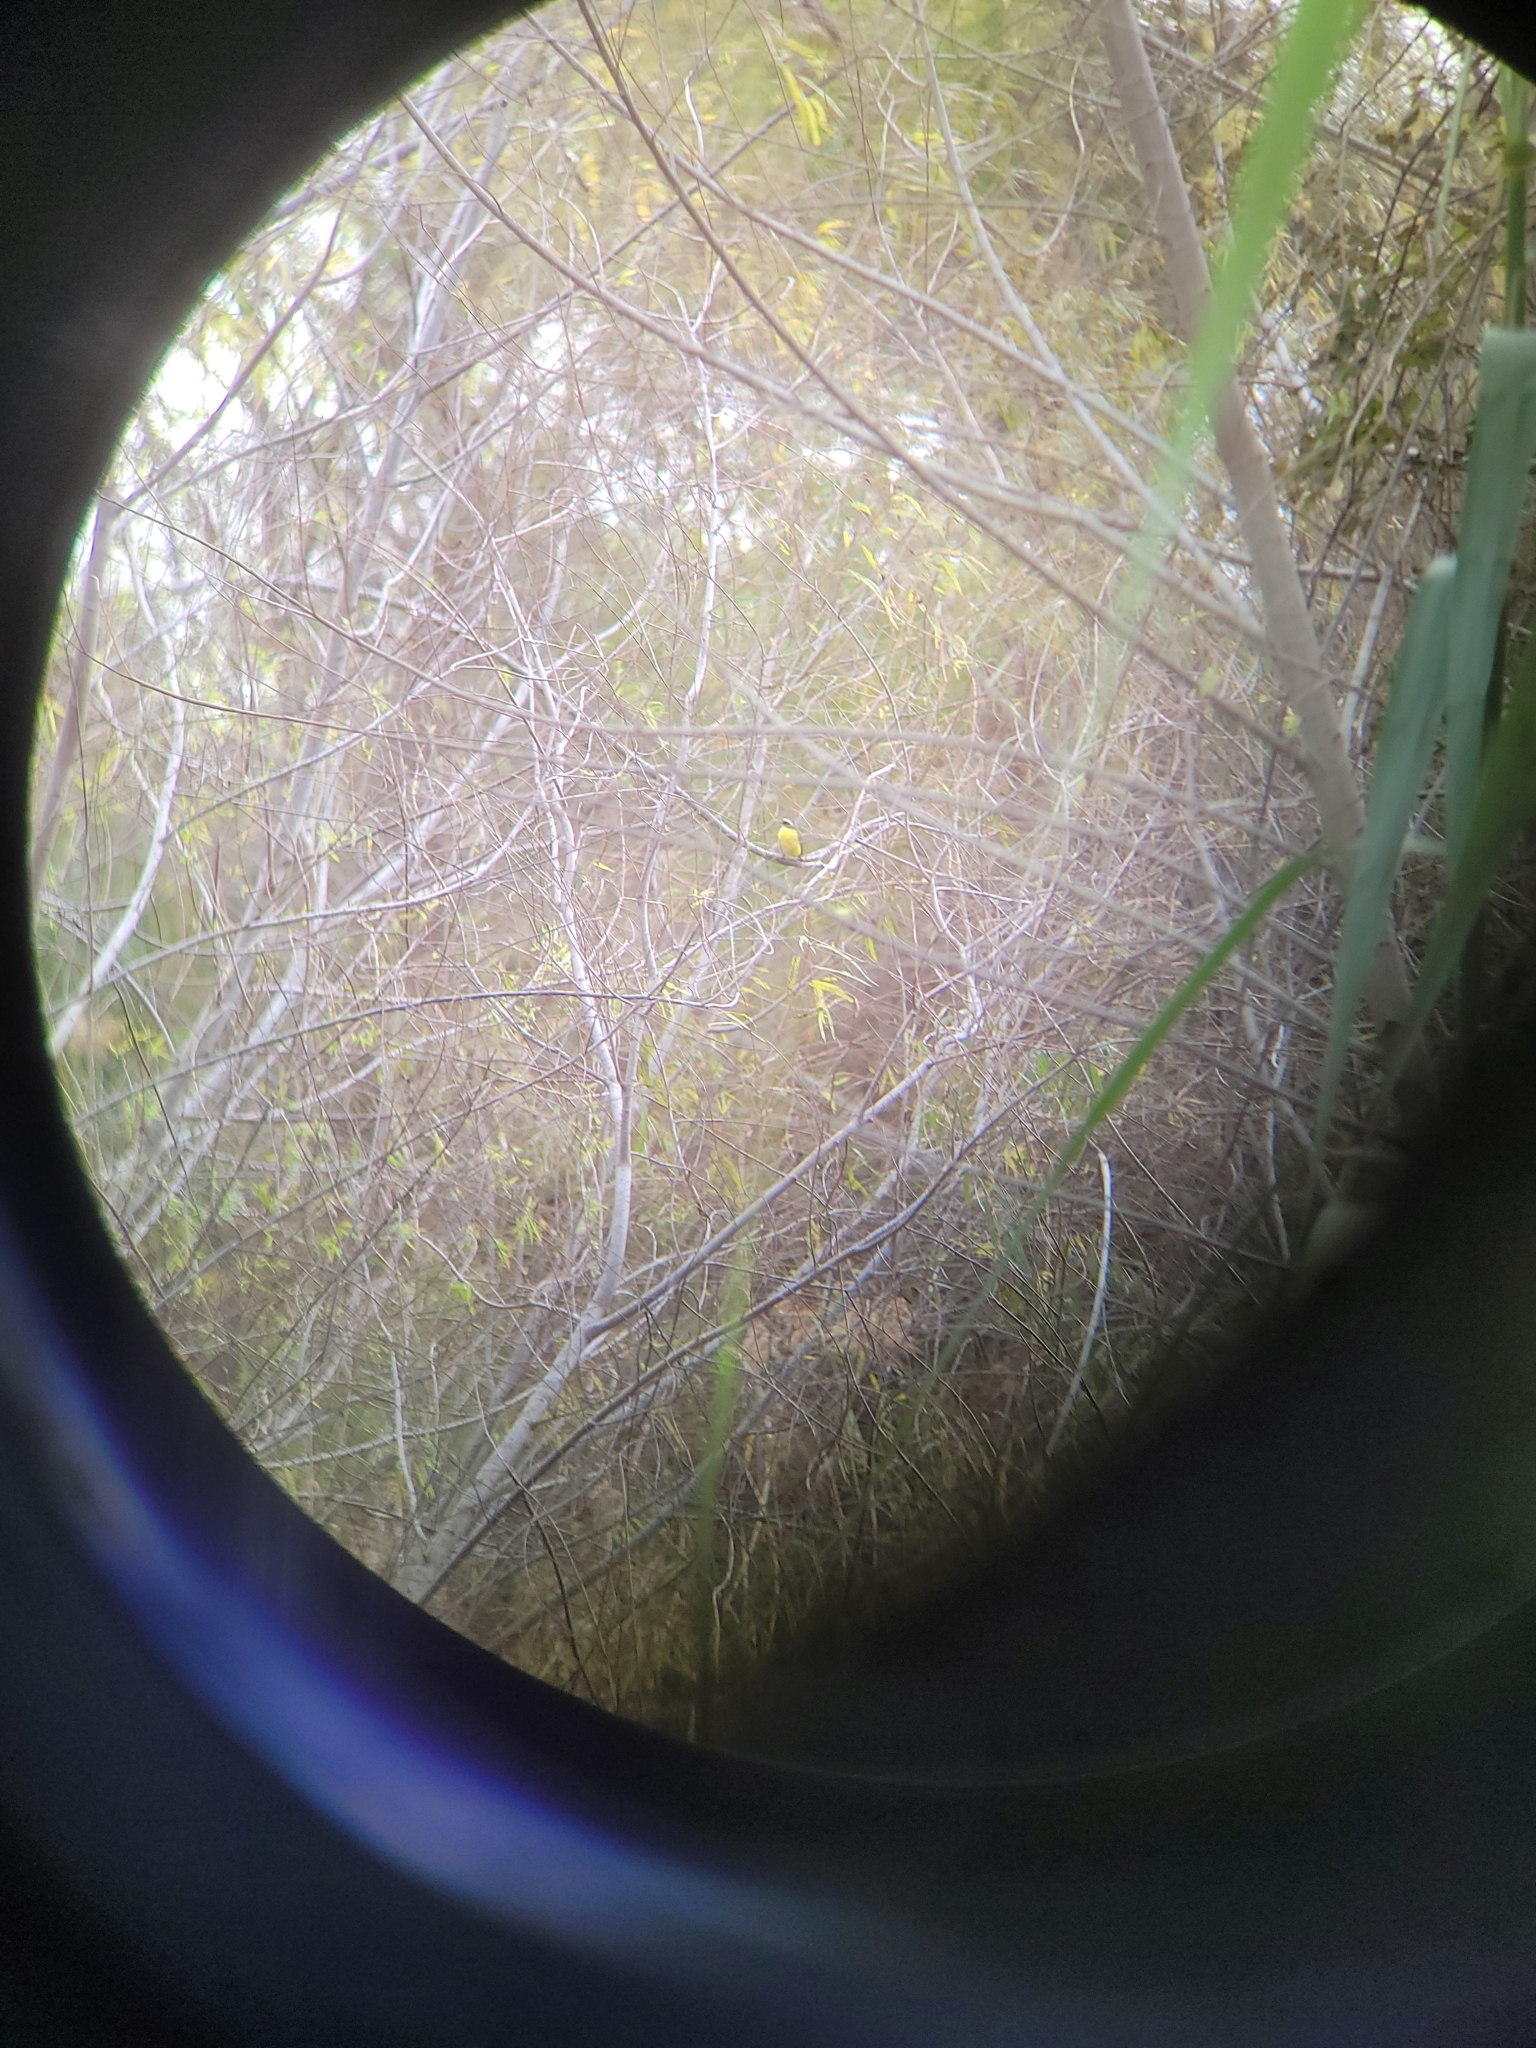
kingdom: Animalia
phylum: Chordata
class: Aves
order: Passeriformes
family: Tyrannidae
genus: Myiozetetes
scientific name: Myiozetetes similis
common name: Social flycatcher
